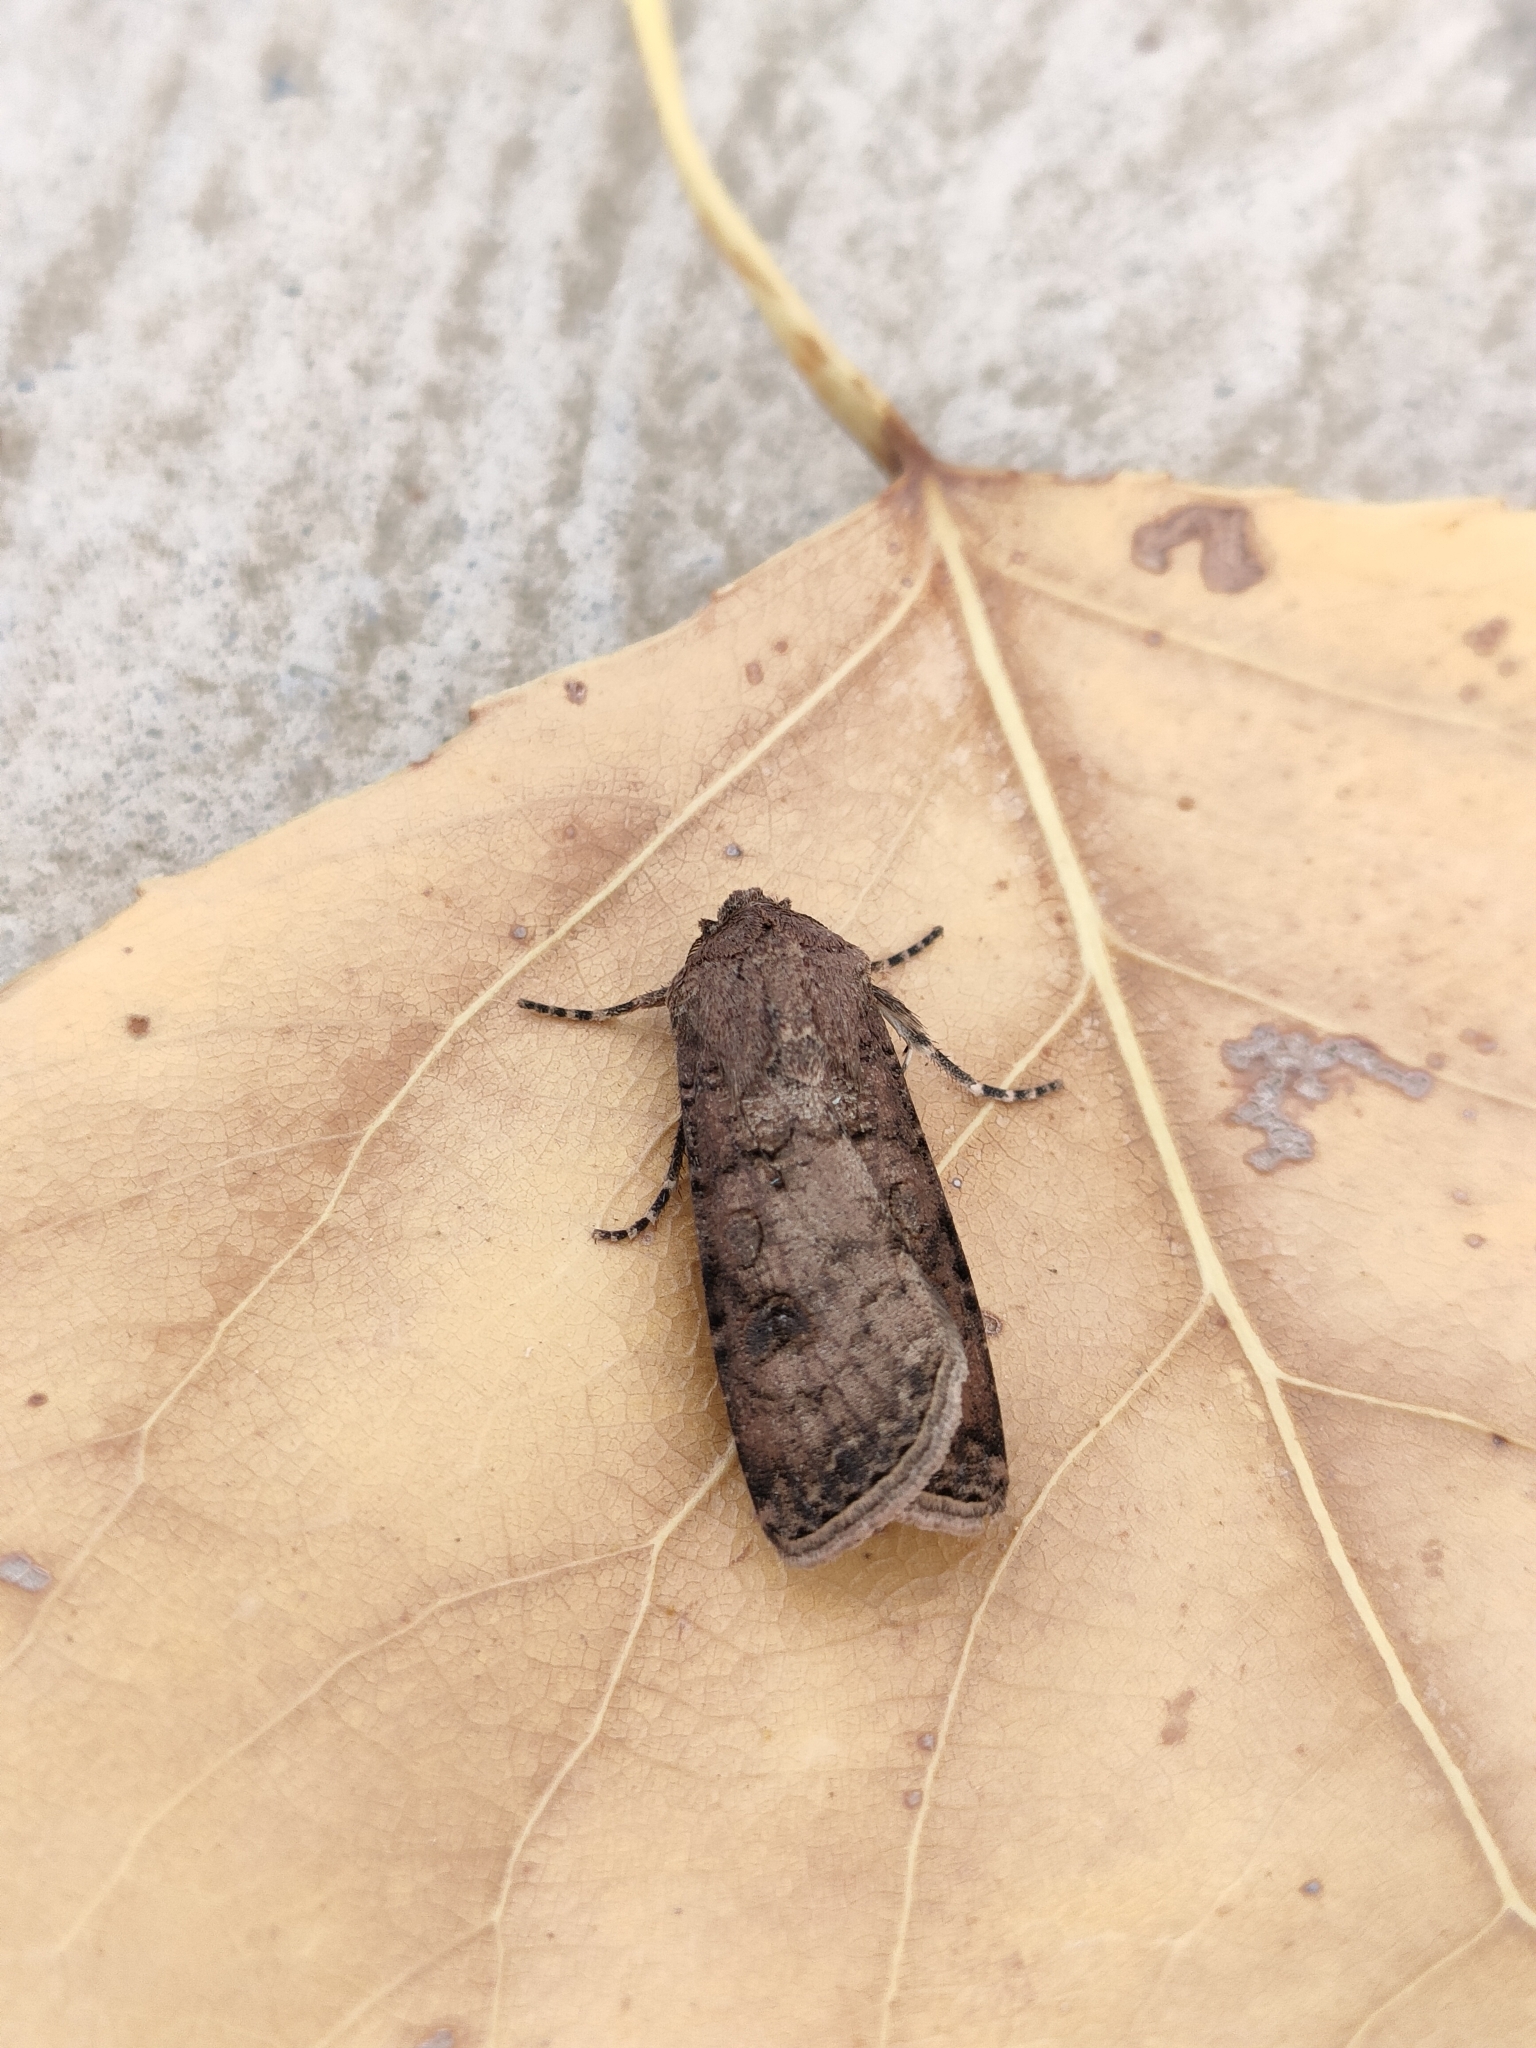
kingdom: Animalia
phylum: Arthropoda
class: Insecta
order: Lepidoptera
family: Noctuidae
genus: Agrotis
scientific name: Agrotis segetum
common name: Turnip moth
